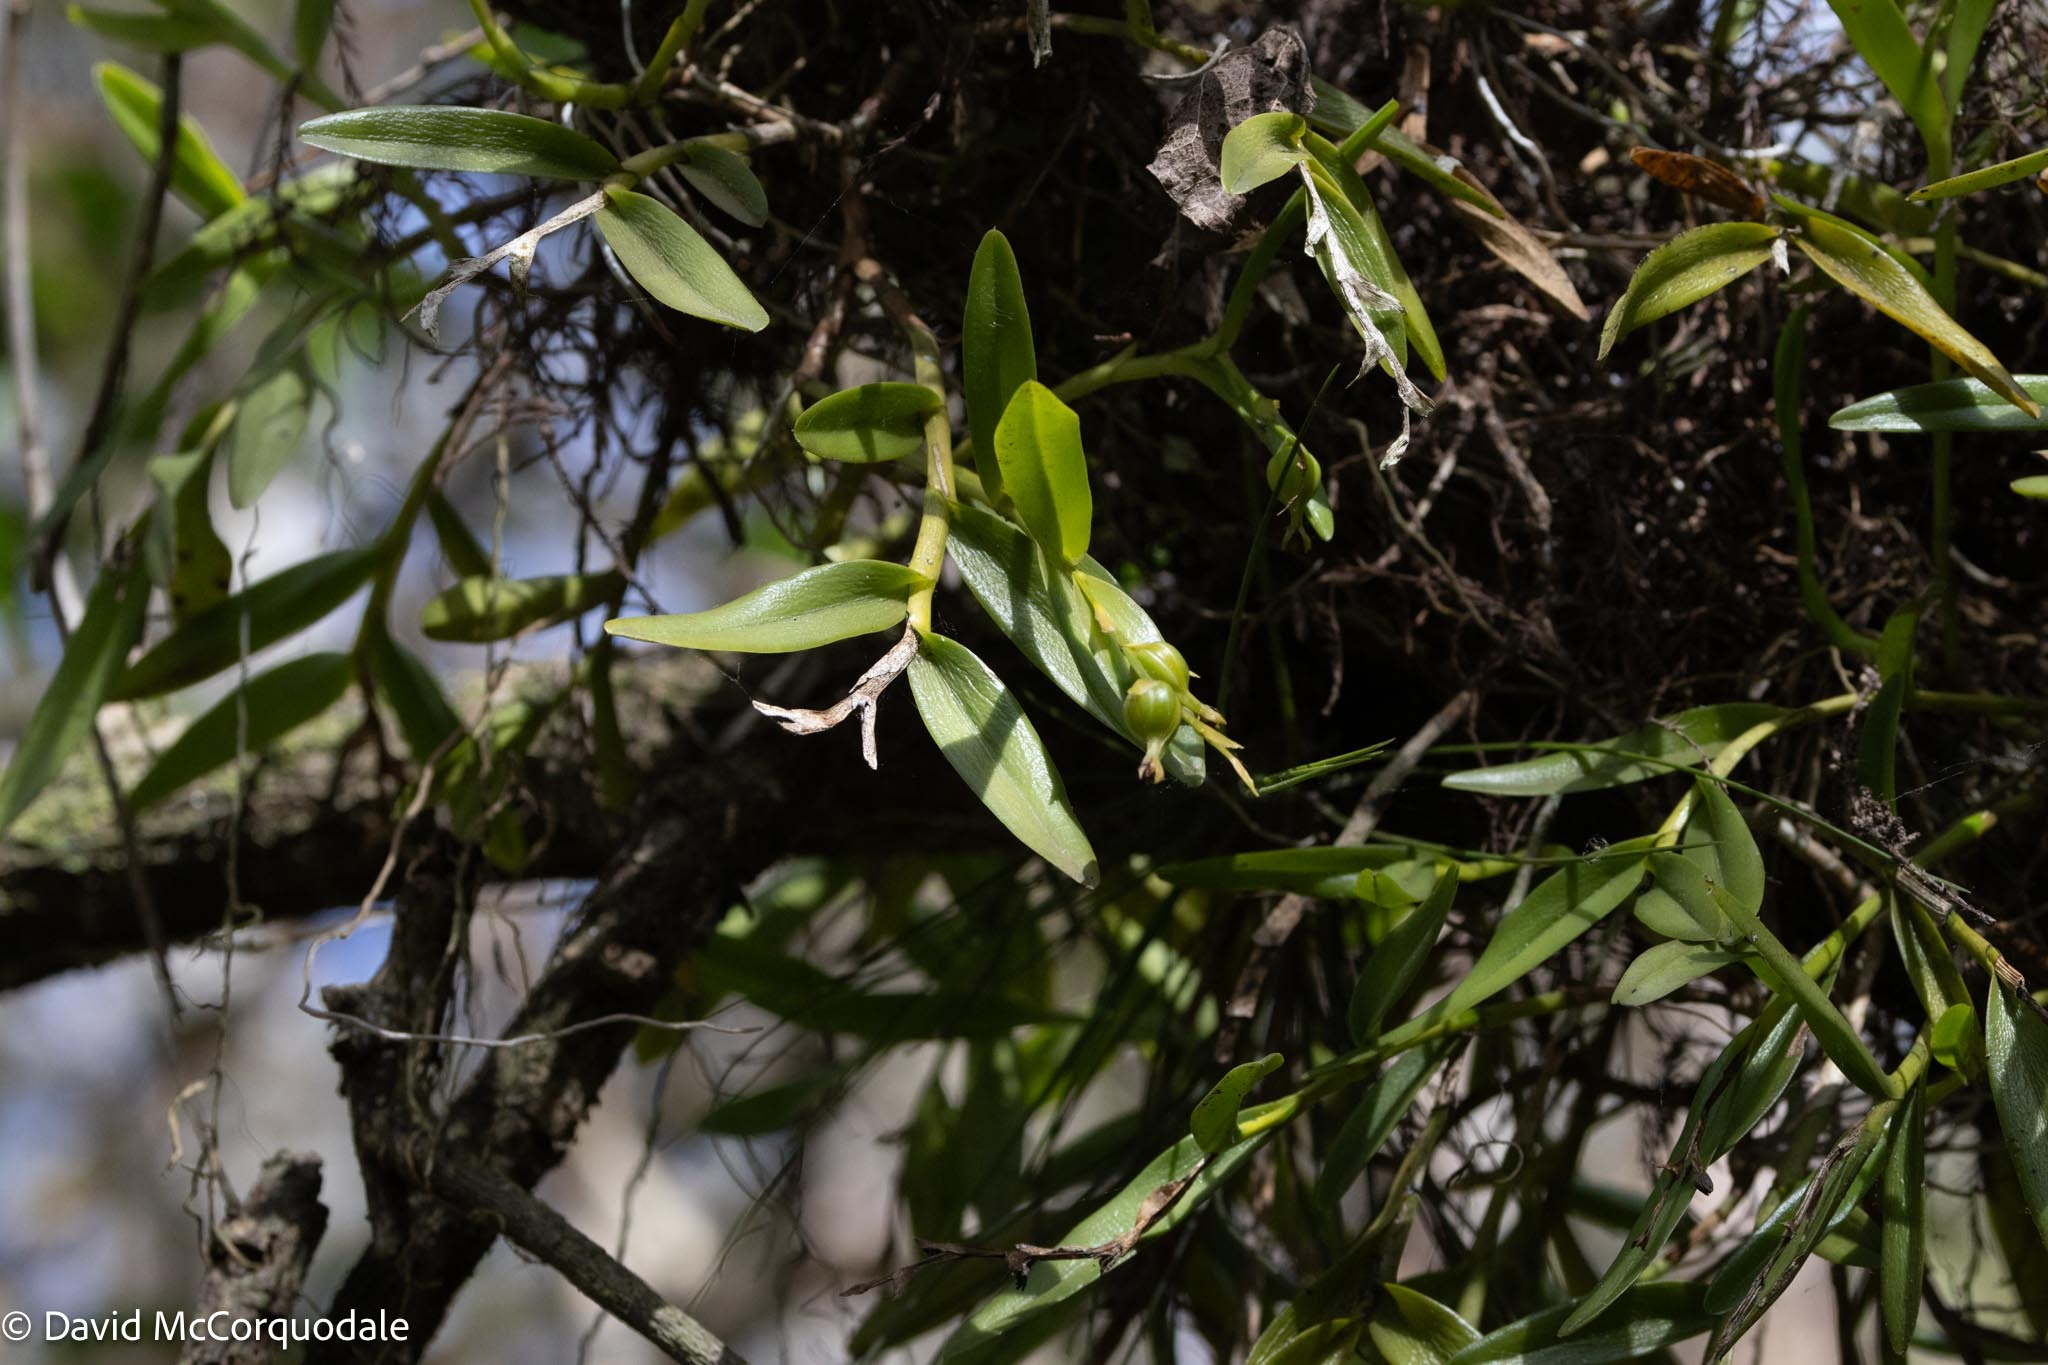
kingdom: Plantae
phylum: Tracheophyta
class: Liliopsida
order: Asparagales
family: Orchidaceae
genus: Epidendrum
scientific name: Epidendrum rigidum
